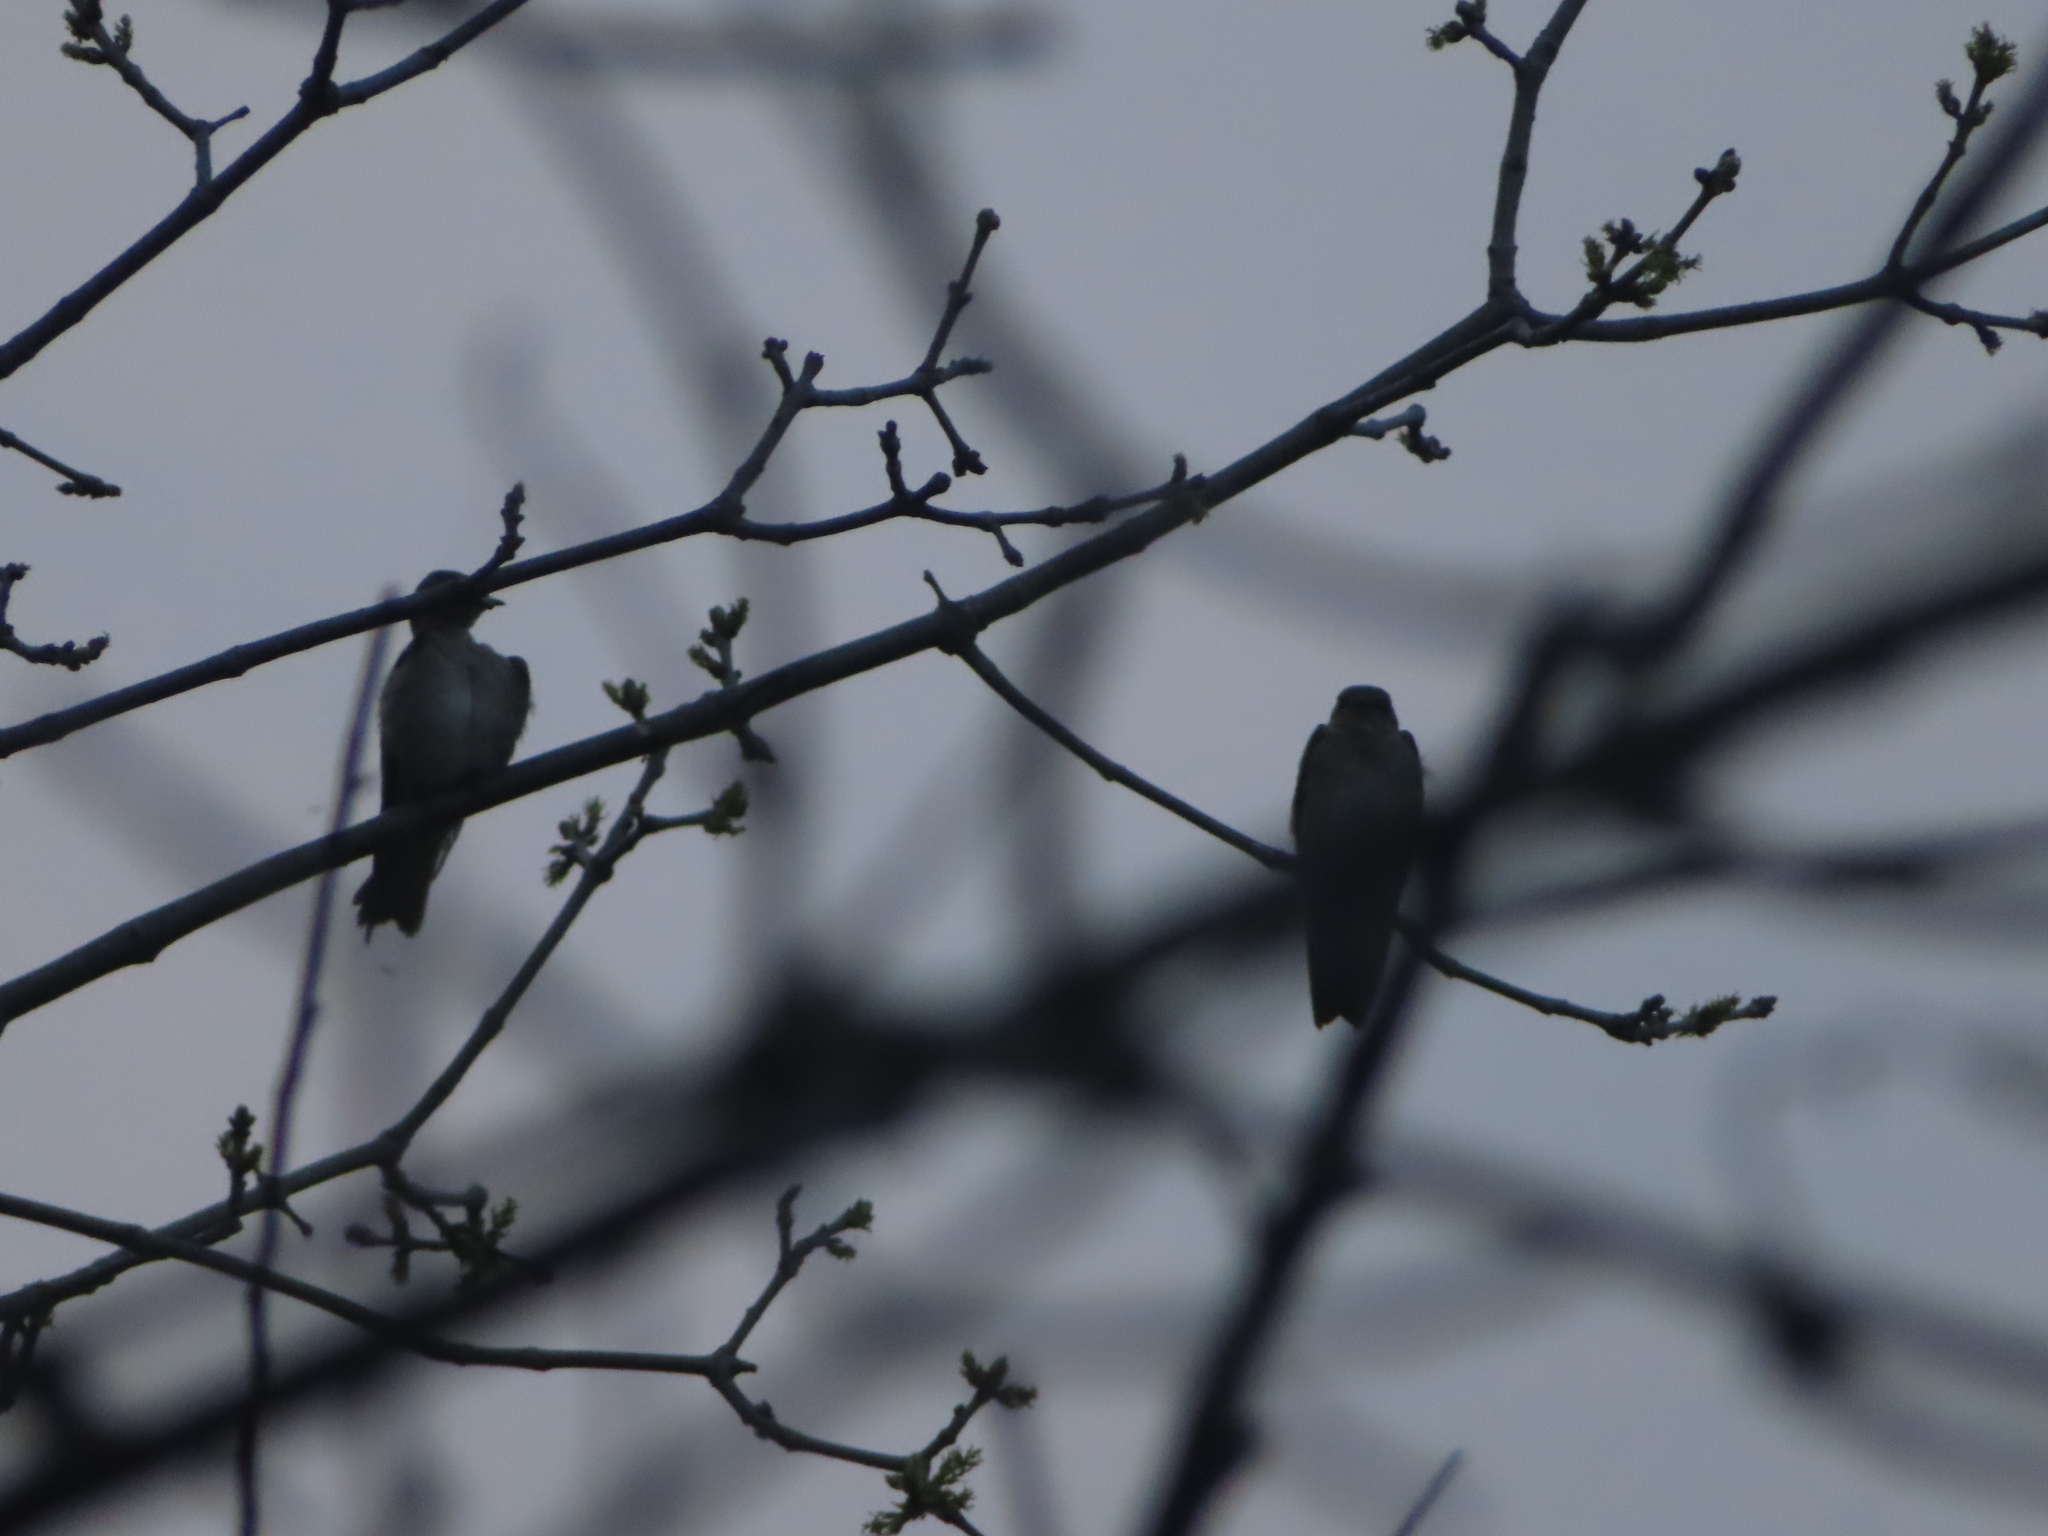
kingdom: Animalia
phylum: Chordata
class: Aves
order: Passeriformes
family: Hirundinidae
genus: Stelgidopteryx
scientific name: Stelgidopteryx serripennis
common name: Northern rough-winged swallow
